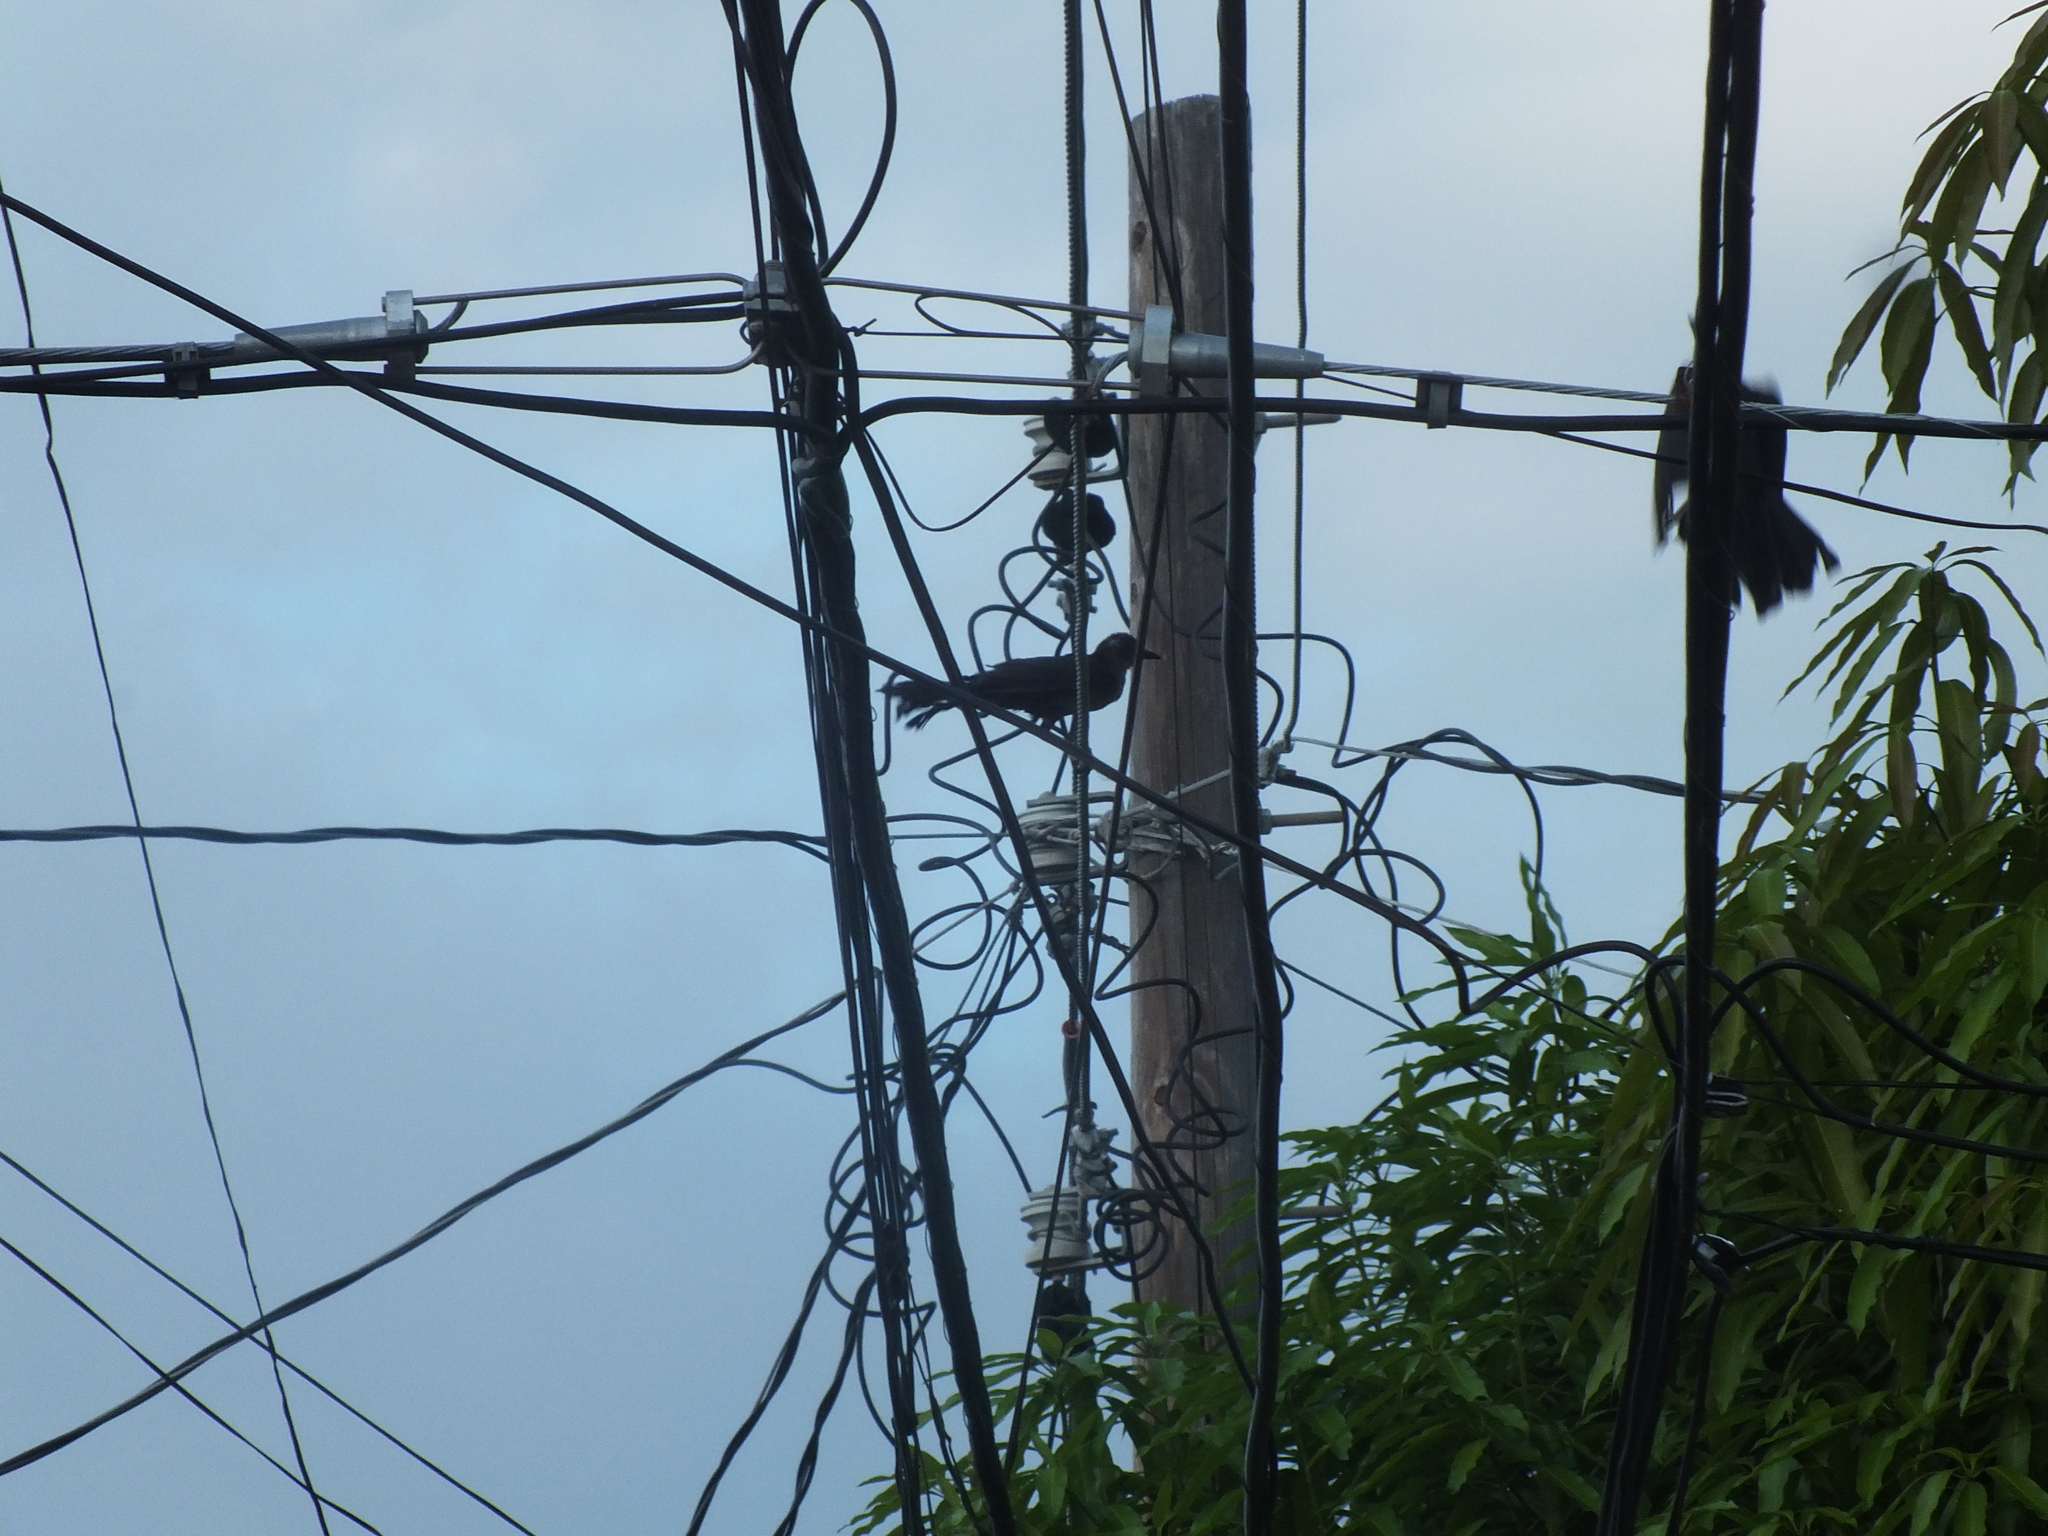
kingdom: Animalia
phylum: Chordata
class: Aves
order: Passeriformes
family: Icteridae
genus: Quiscalus
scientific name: Quiscalus mexicanus
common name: Great-tailed grackle
